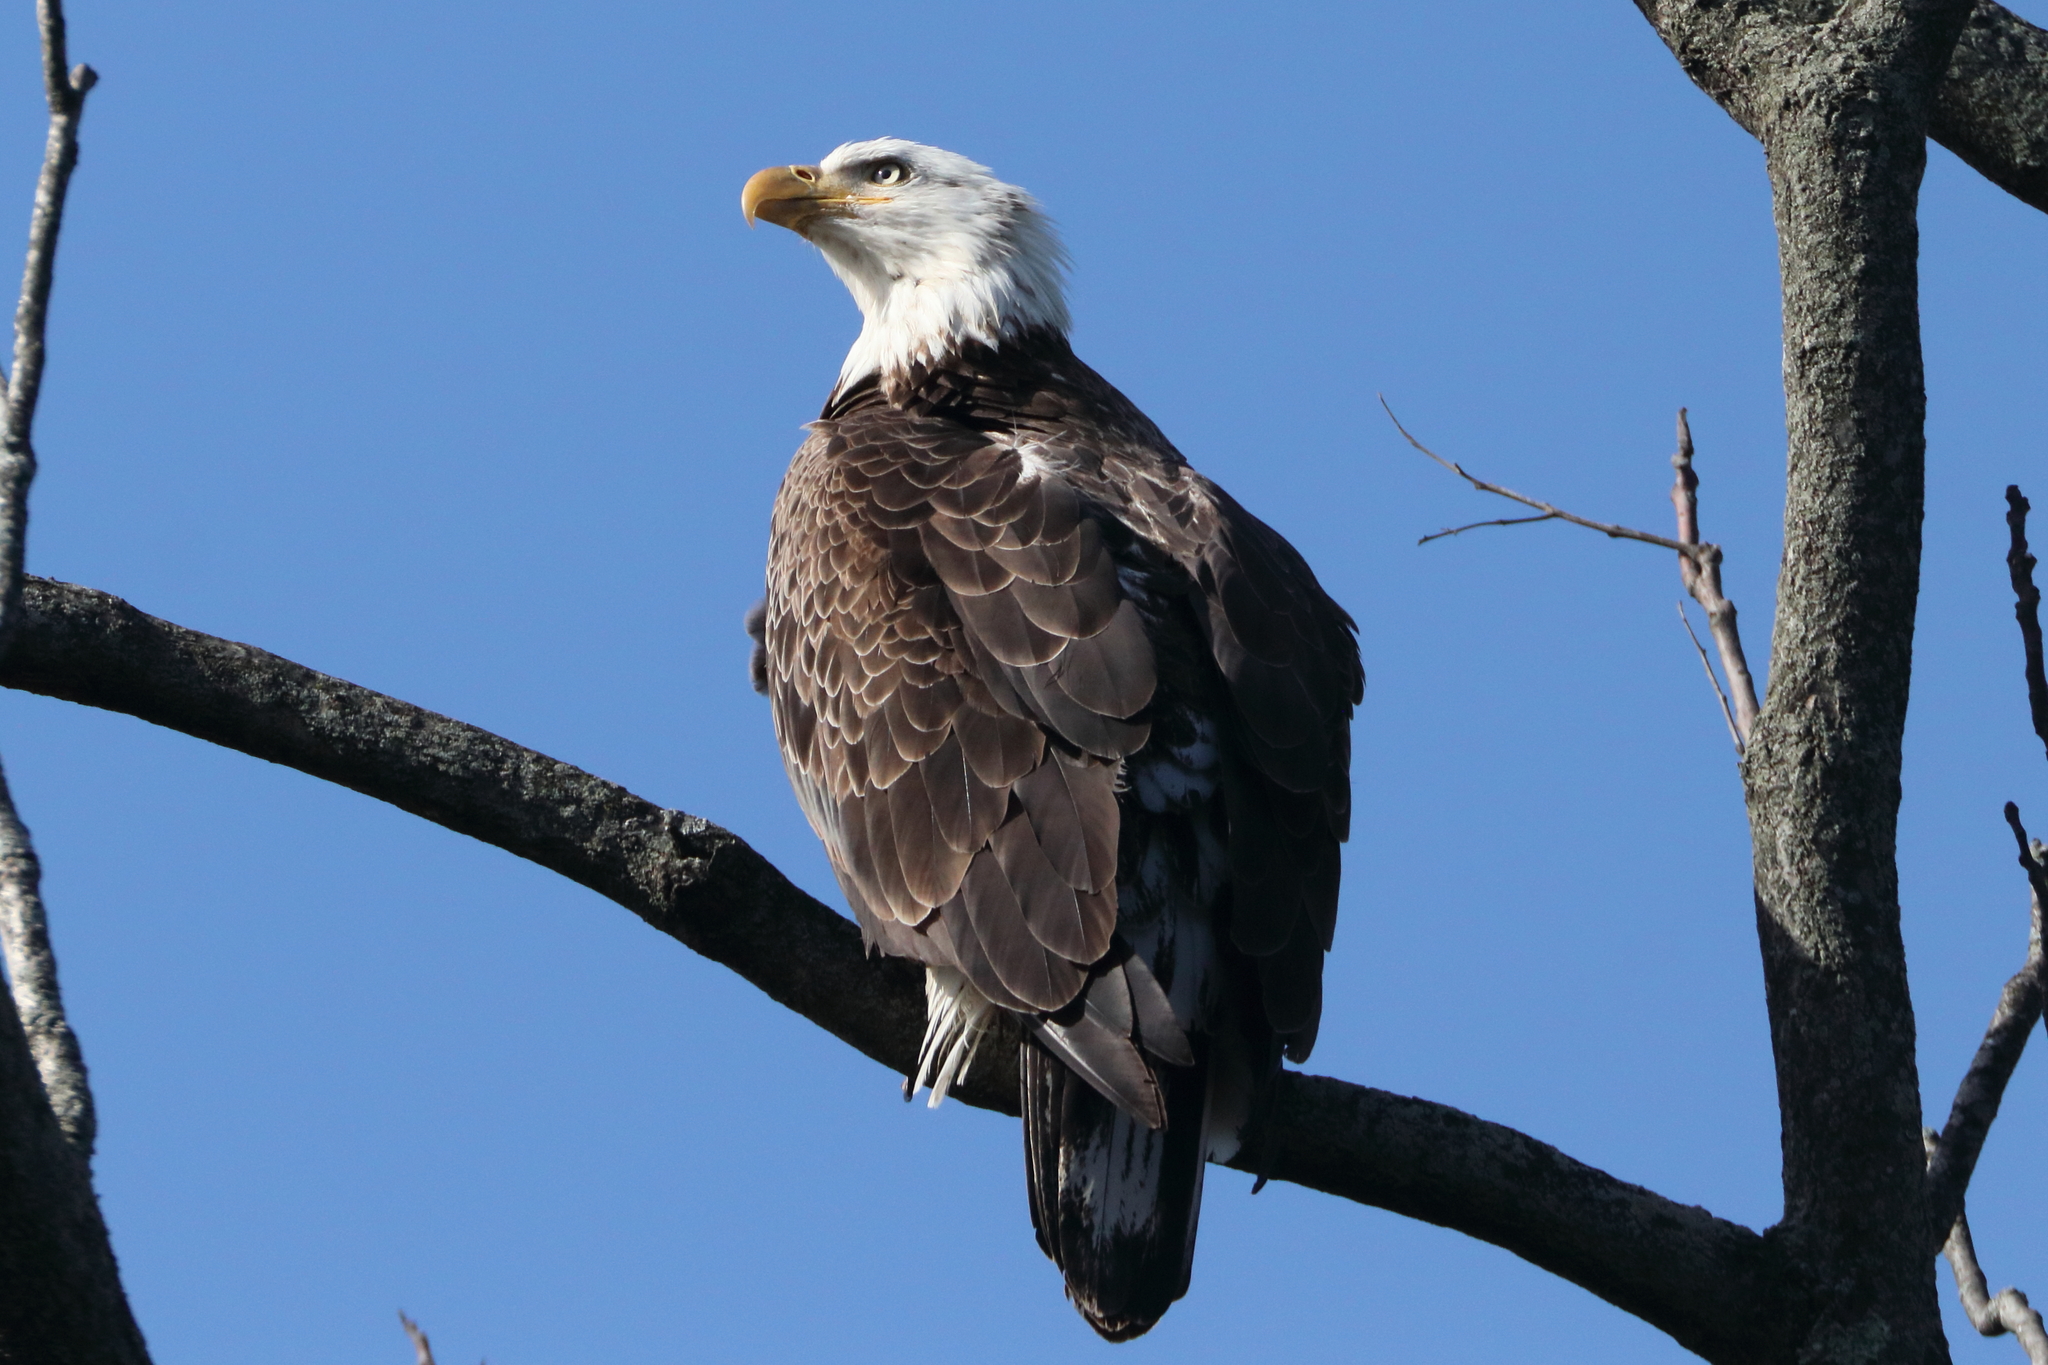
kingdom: Animalia
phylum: Chordata
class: Aves
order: Accipitriformes
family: Accipitridae
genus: Haliaeetus
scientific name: Haliaeetus leucocephalus
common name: Bald eagle
